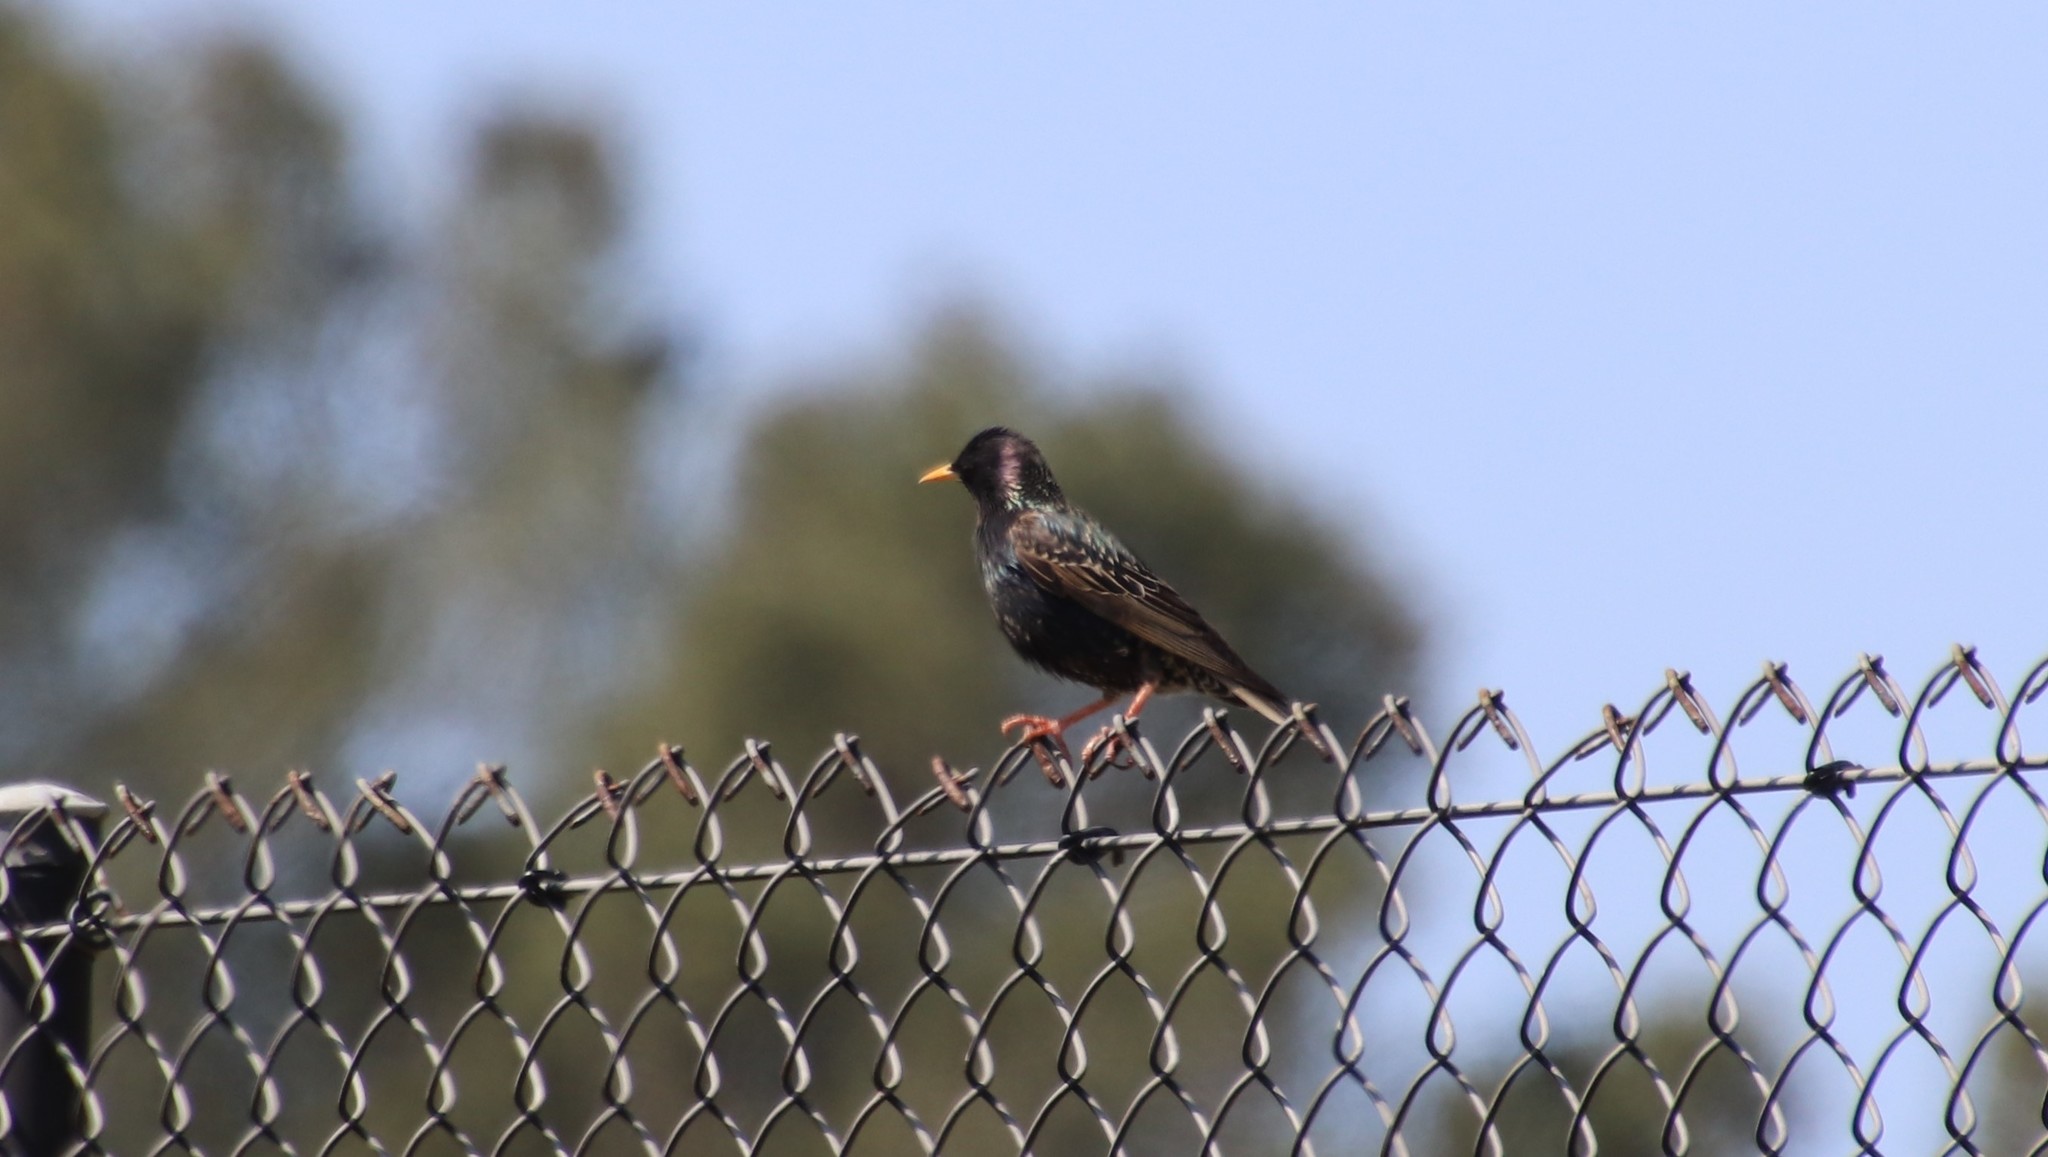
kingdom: Animalia
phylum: Chordata
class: Aves
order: Passeriformes
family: Sturnidae
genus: Sturnus
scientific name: Sturnus vulgaris
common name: Common starling
